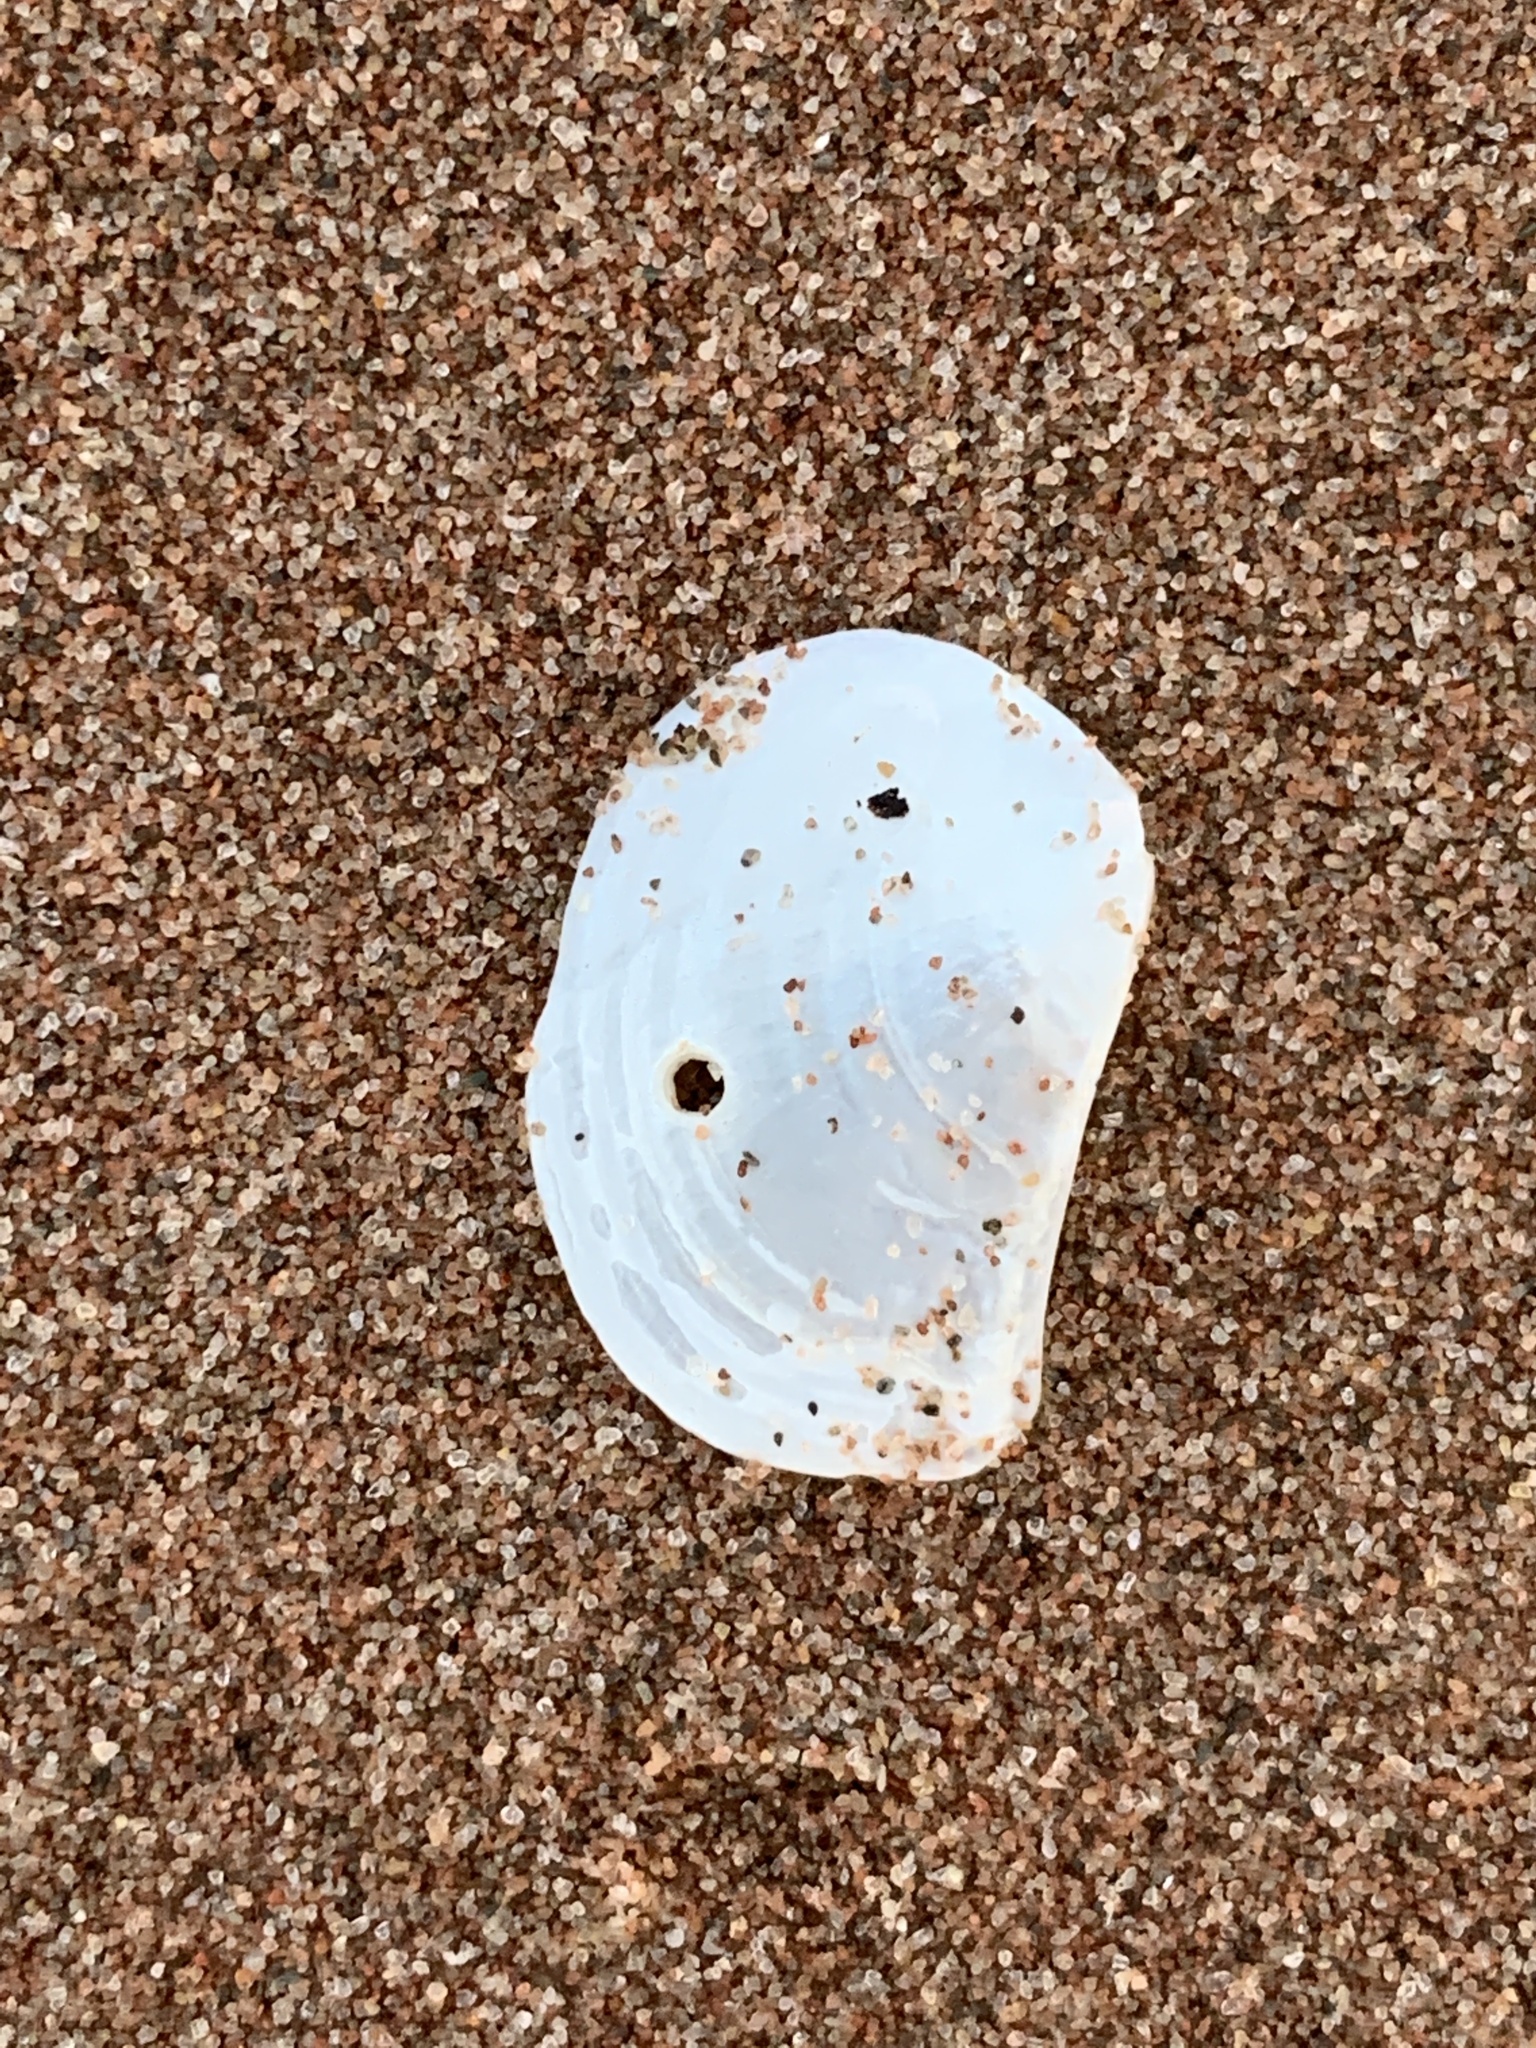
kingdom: Animalia
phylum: Mollusca
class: Bivalvia
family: Pandoridae
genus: Pandora
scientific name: Pandora gouldiana
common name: Rounded pandora
